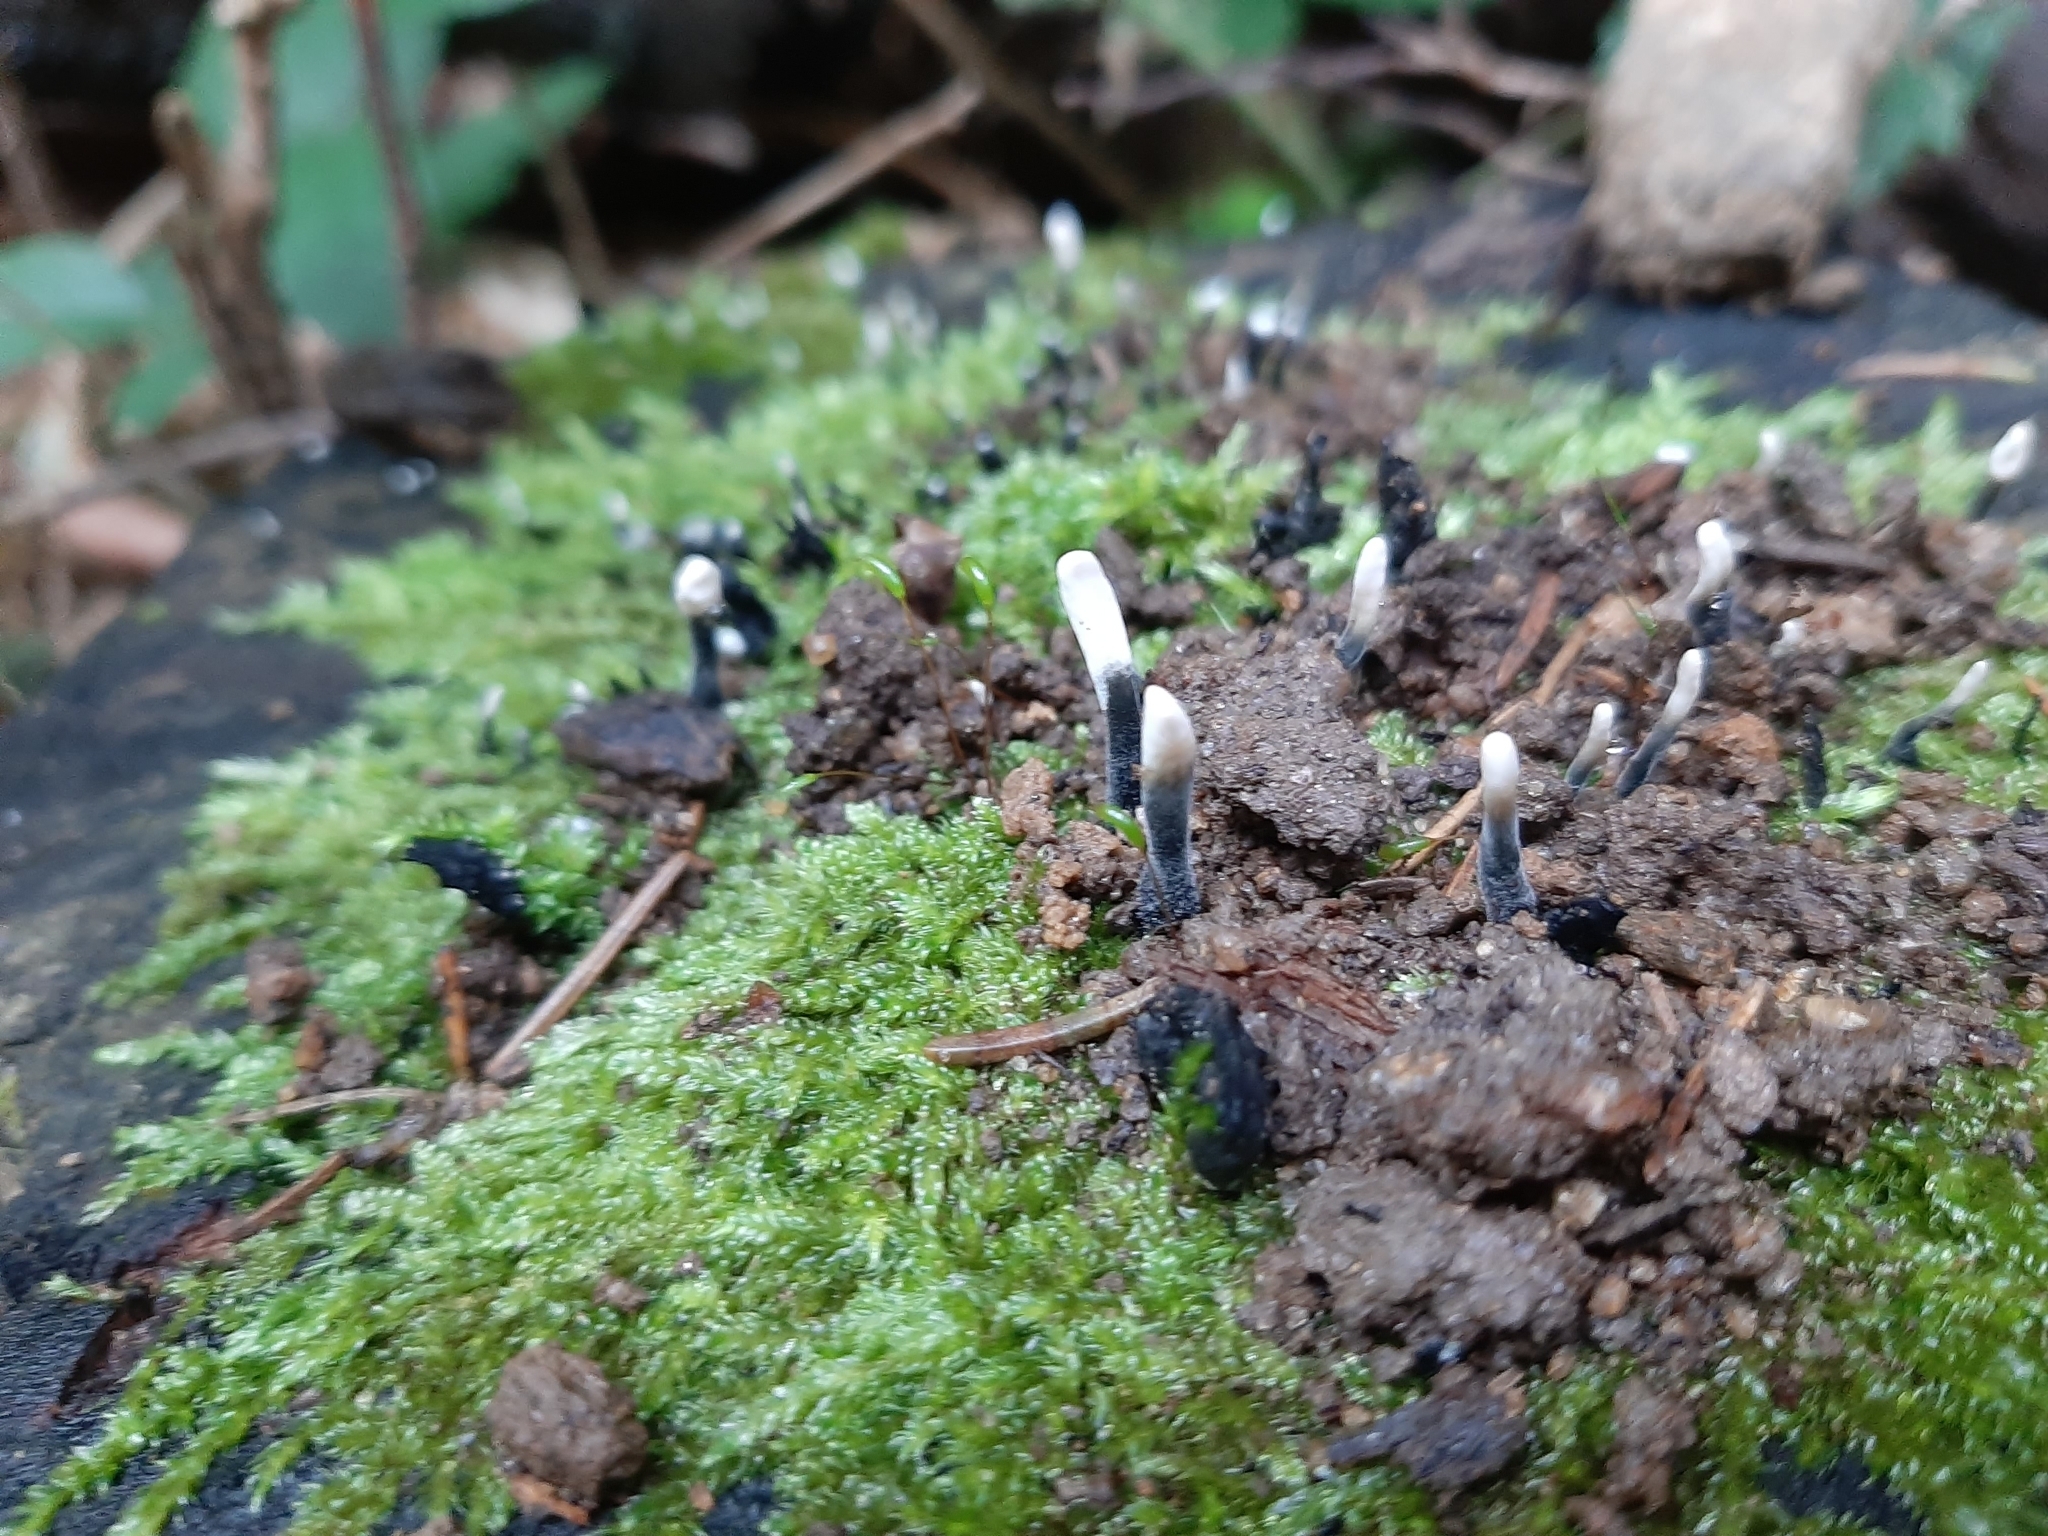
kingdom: Fungi
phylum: Ascomycota
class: Sordariomycetes
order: Xylariales
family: Xylariaceae
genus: Xylaria
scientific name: Xylaria hypoxylon
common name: Candle-snuff fungus
